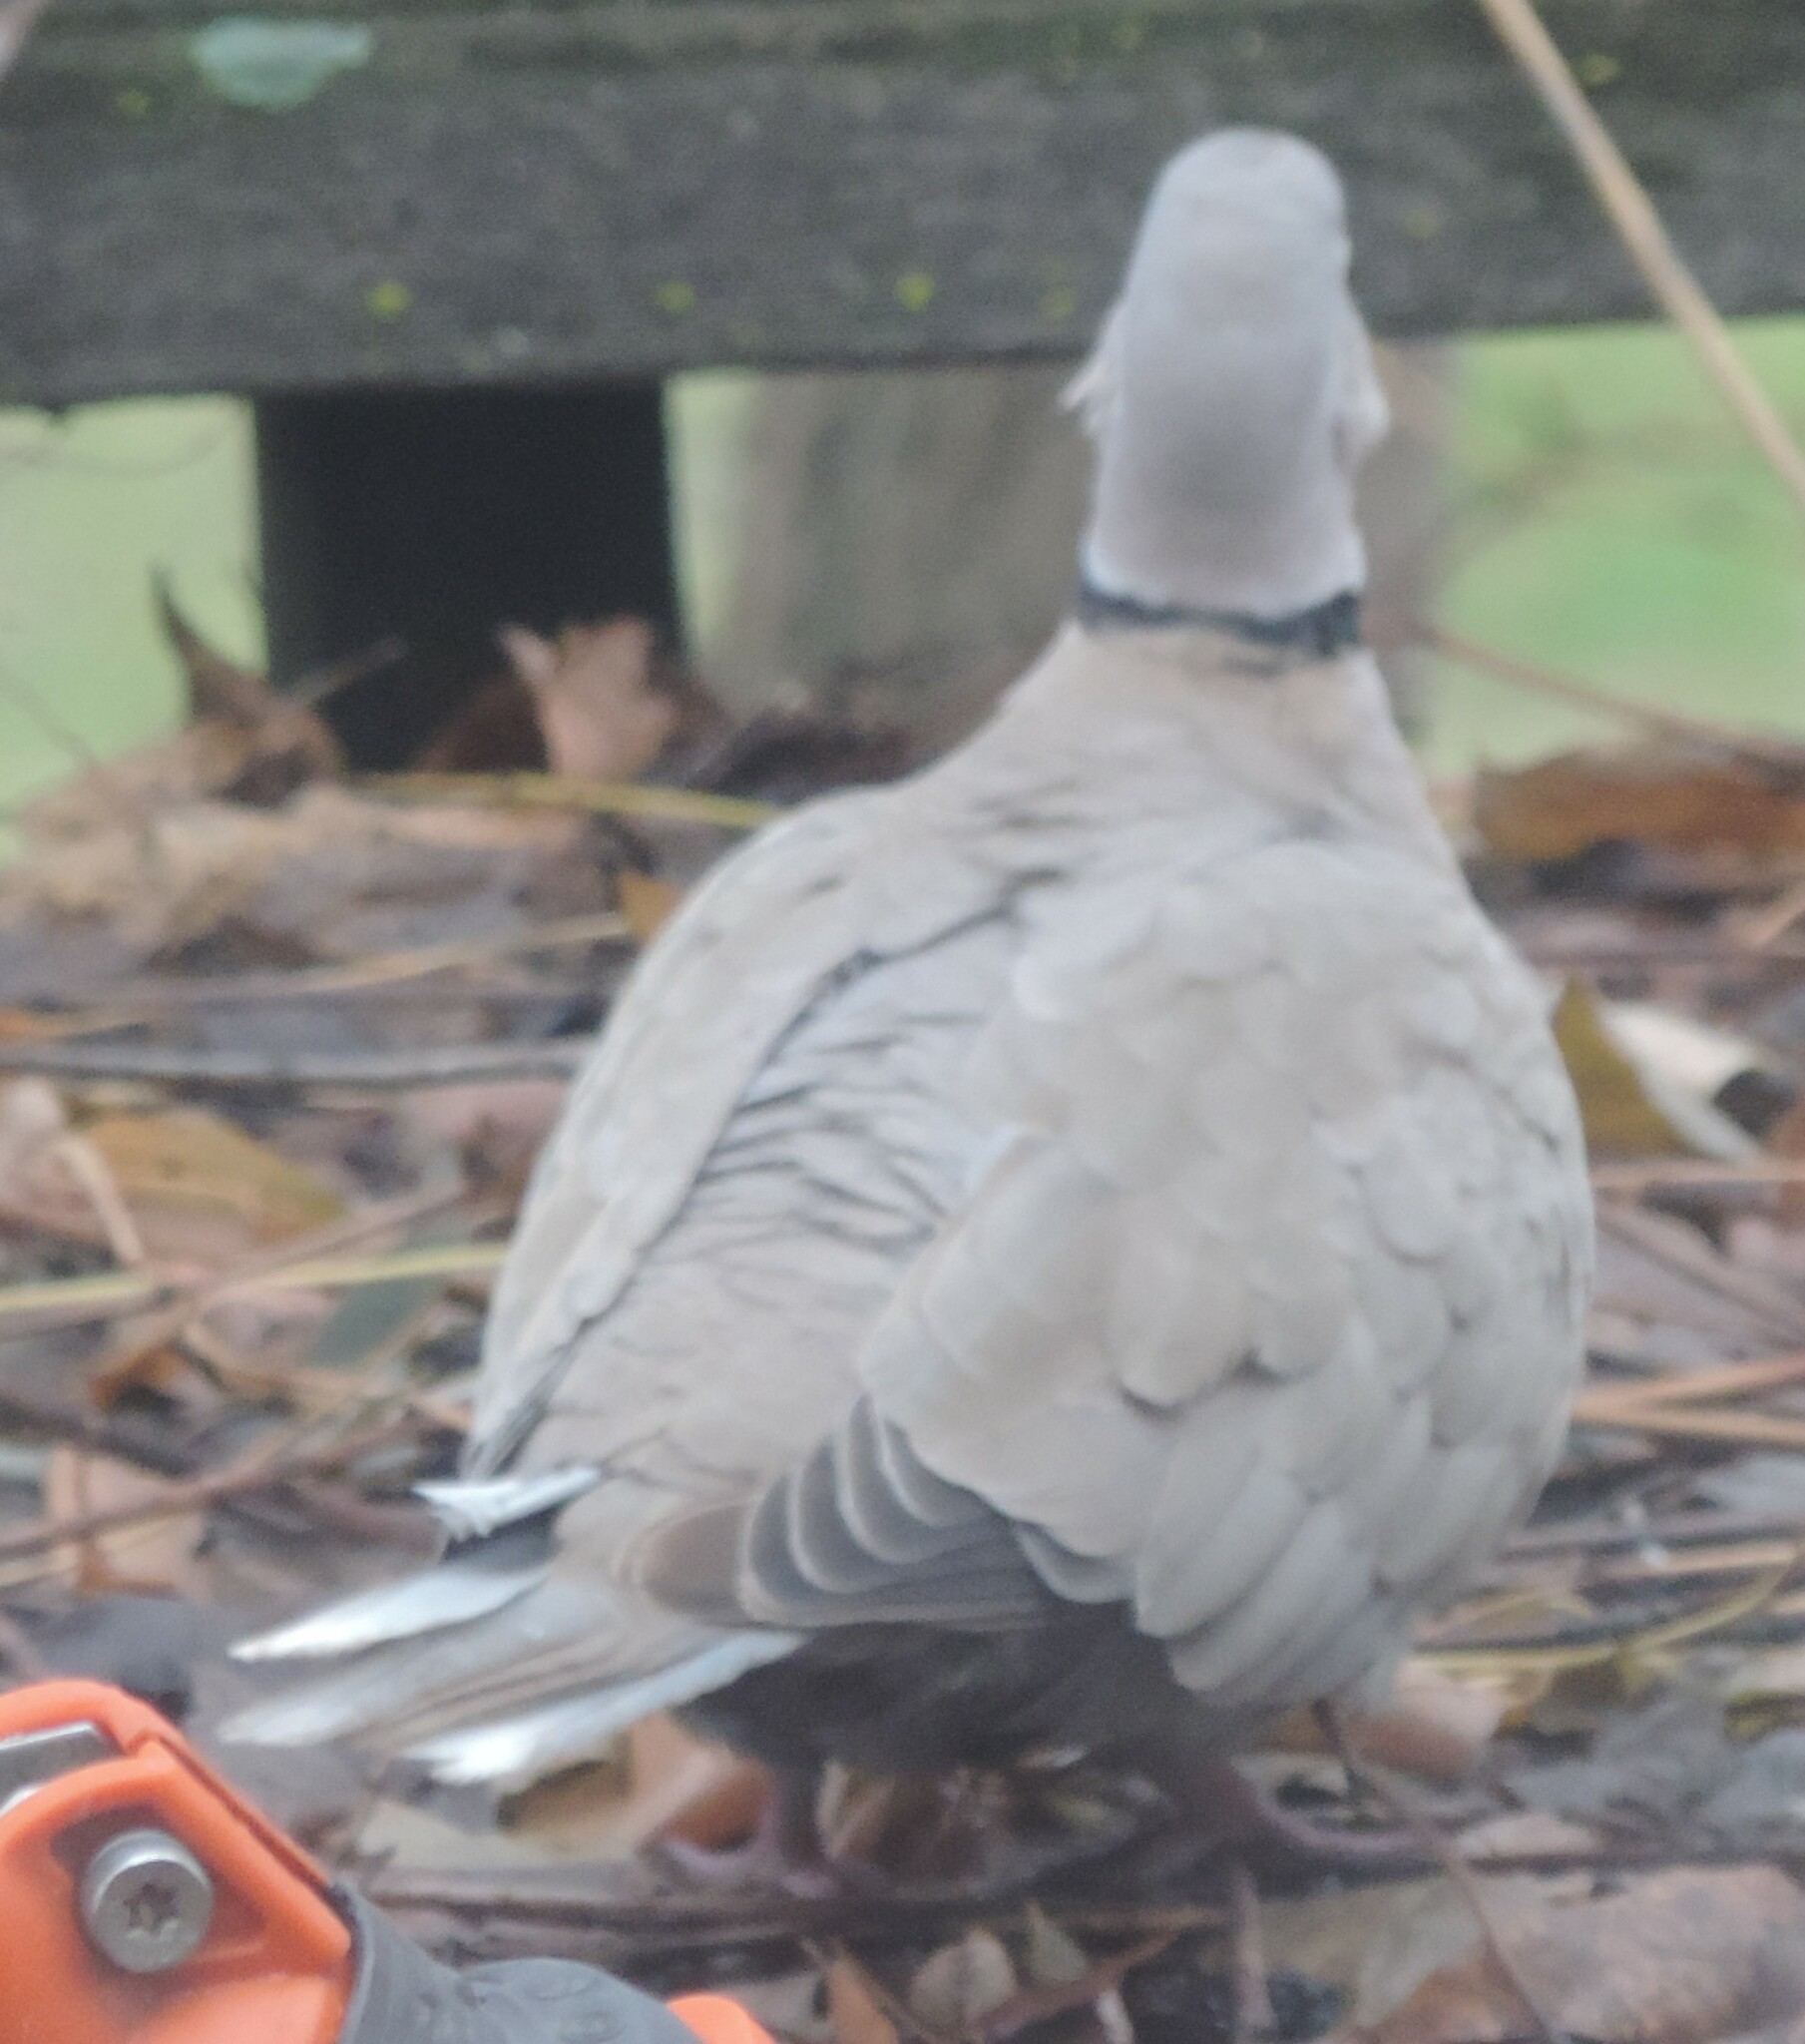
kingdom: Animalia
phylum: Chordata
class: Aves
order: Columbiformes
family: Columbidae
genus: Streptopelia
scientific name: Streptopelia decaocto
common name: Eurasian collared dove
